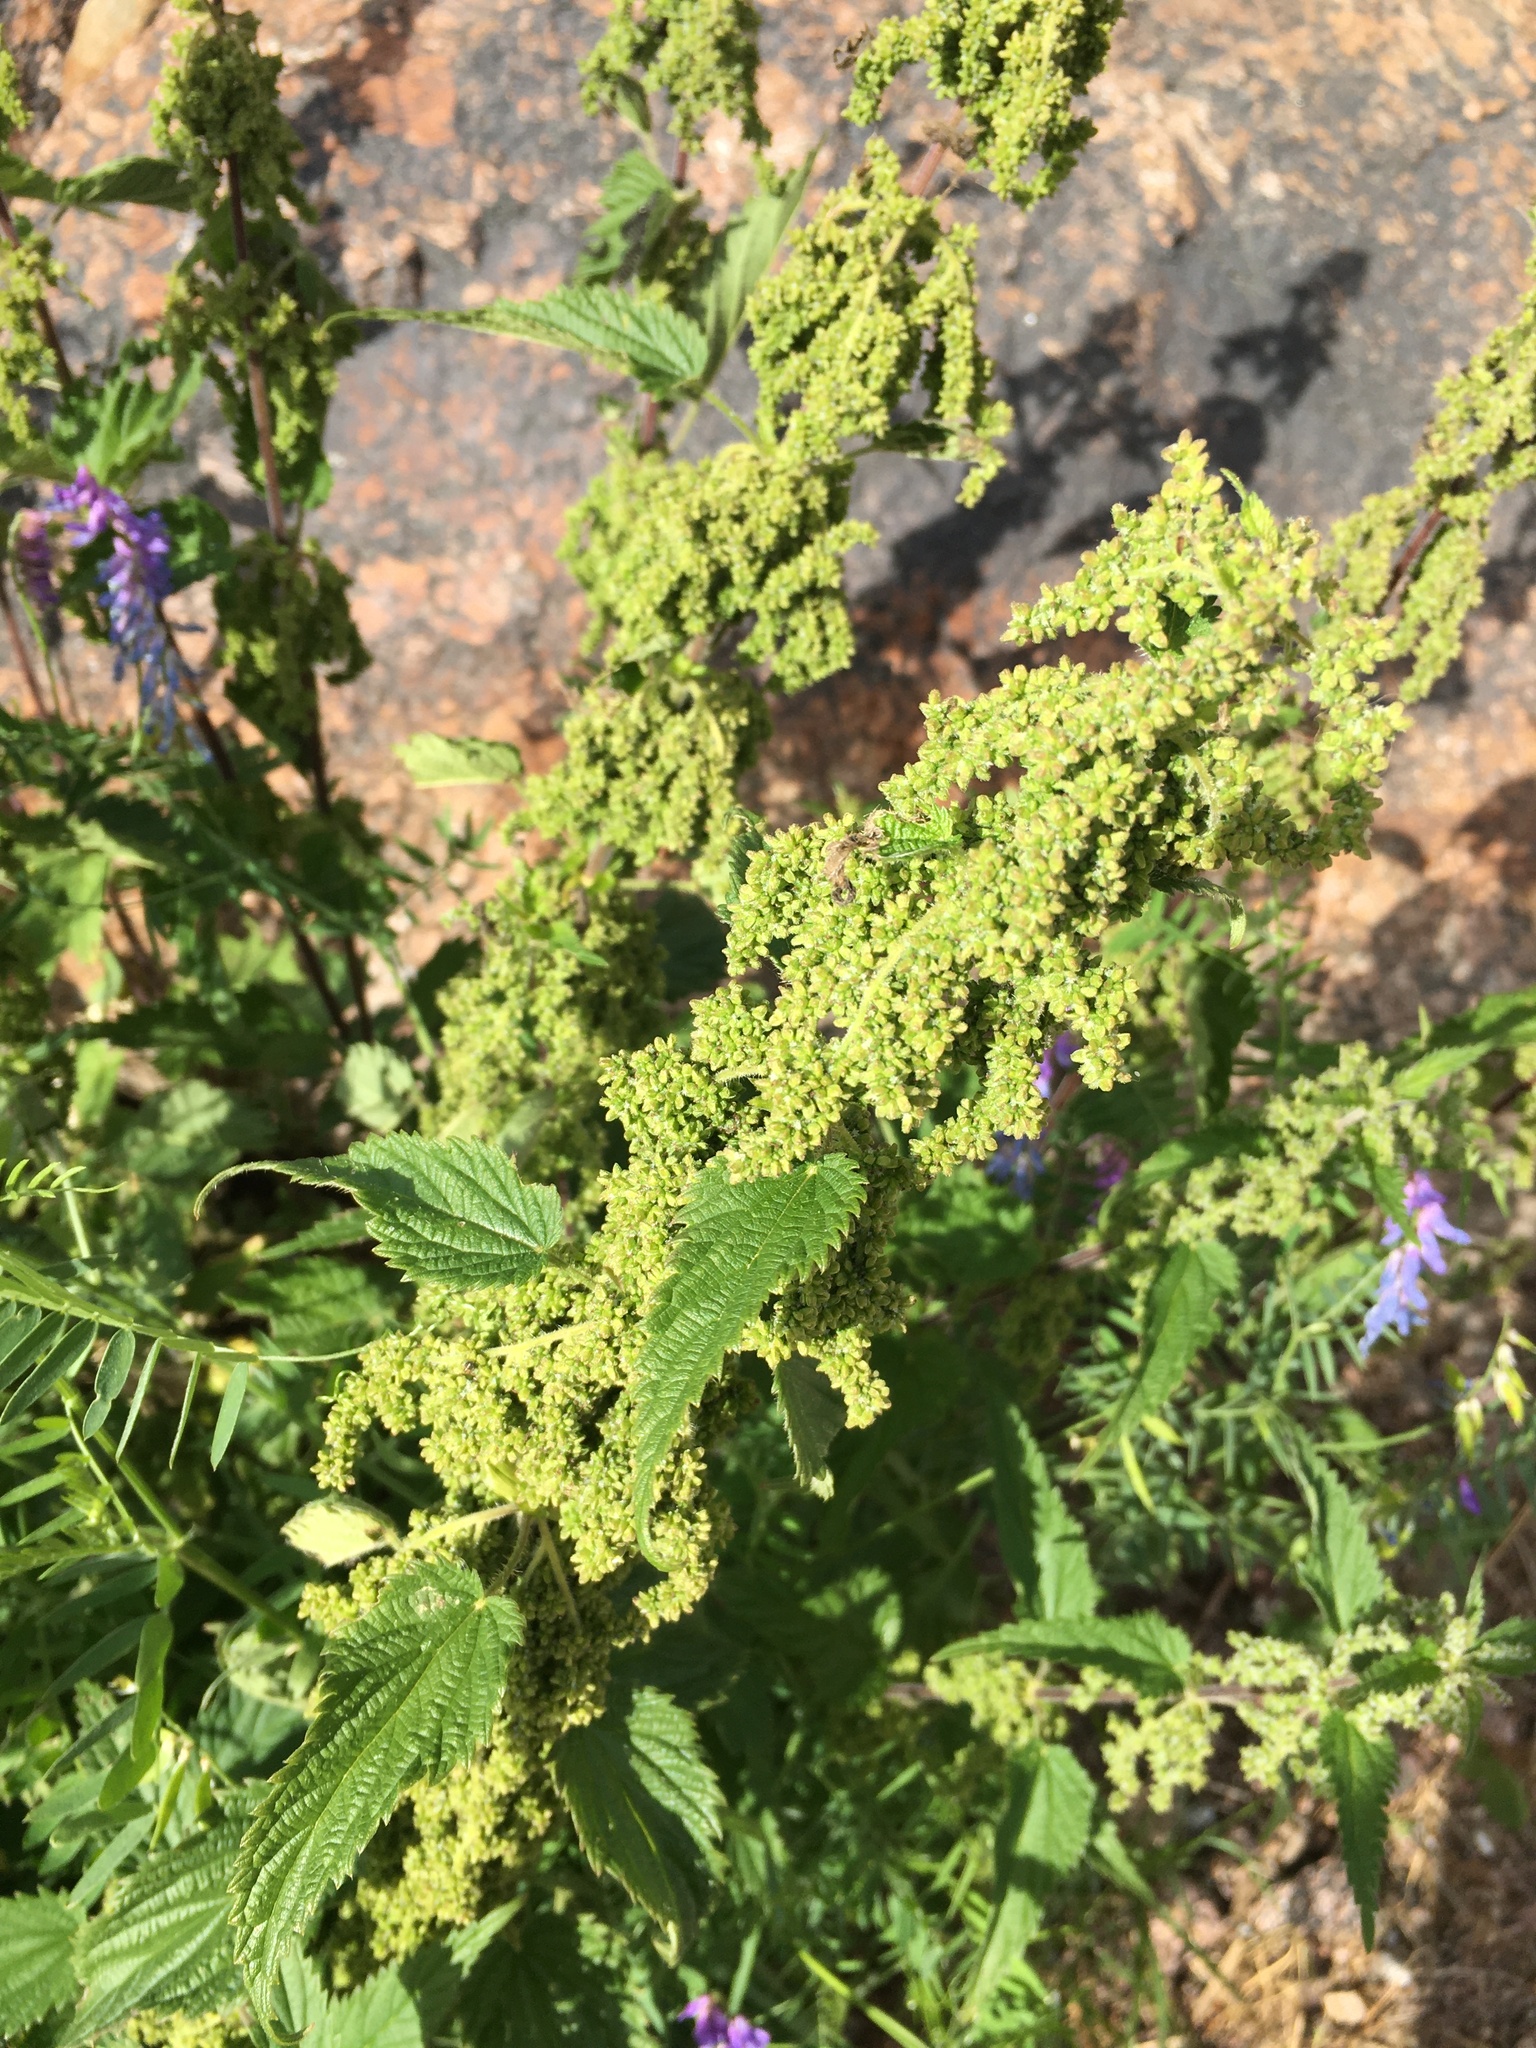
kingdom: Plantae
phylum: Tracheophyta
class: Magnoliopsida
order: Rosales
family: Urticaceae
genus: Urtica
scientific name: Urtica dioica
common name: Common nettle
